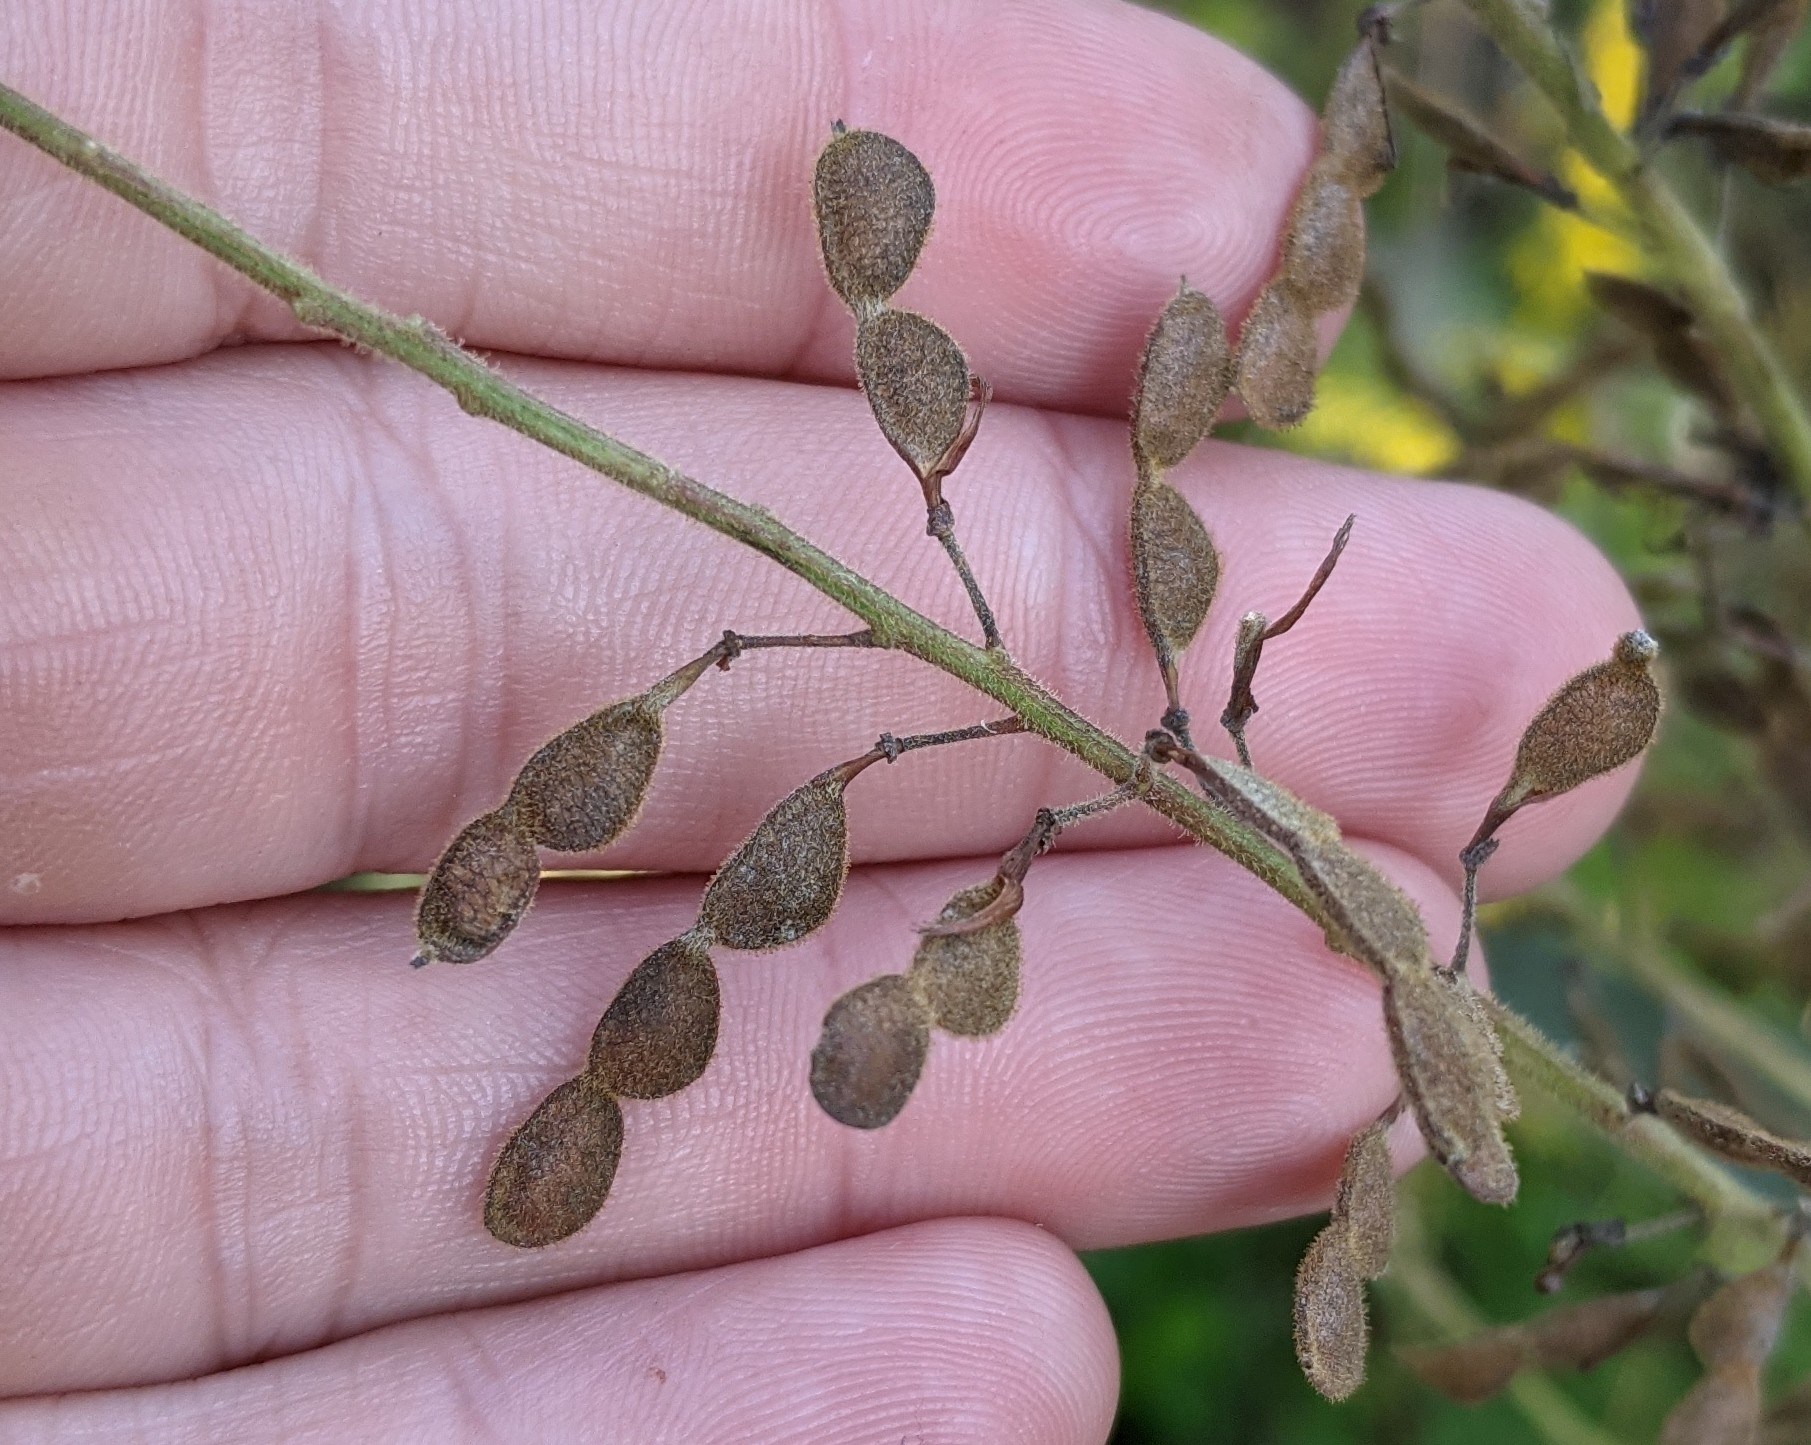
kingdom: Plantae
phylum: Tracheophyta
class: Magnoliopsida
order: Fabales
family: Fabaceae
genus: Desmodium
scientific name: Desmodium canadense
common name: Canada tick-trefoil
